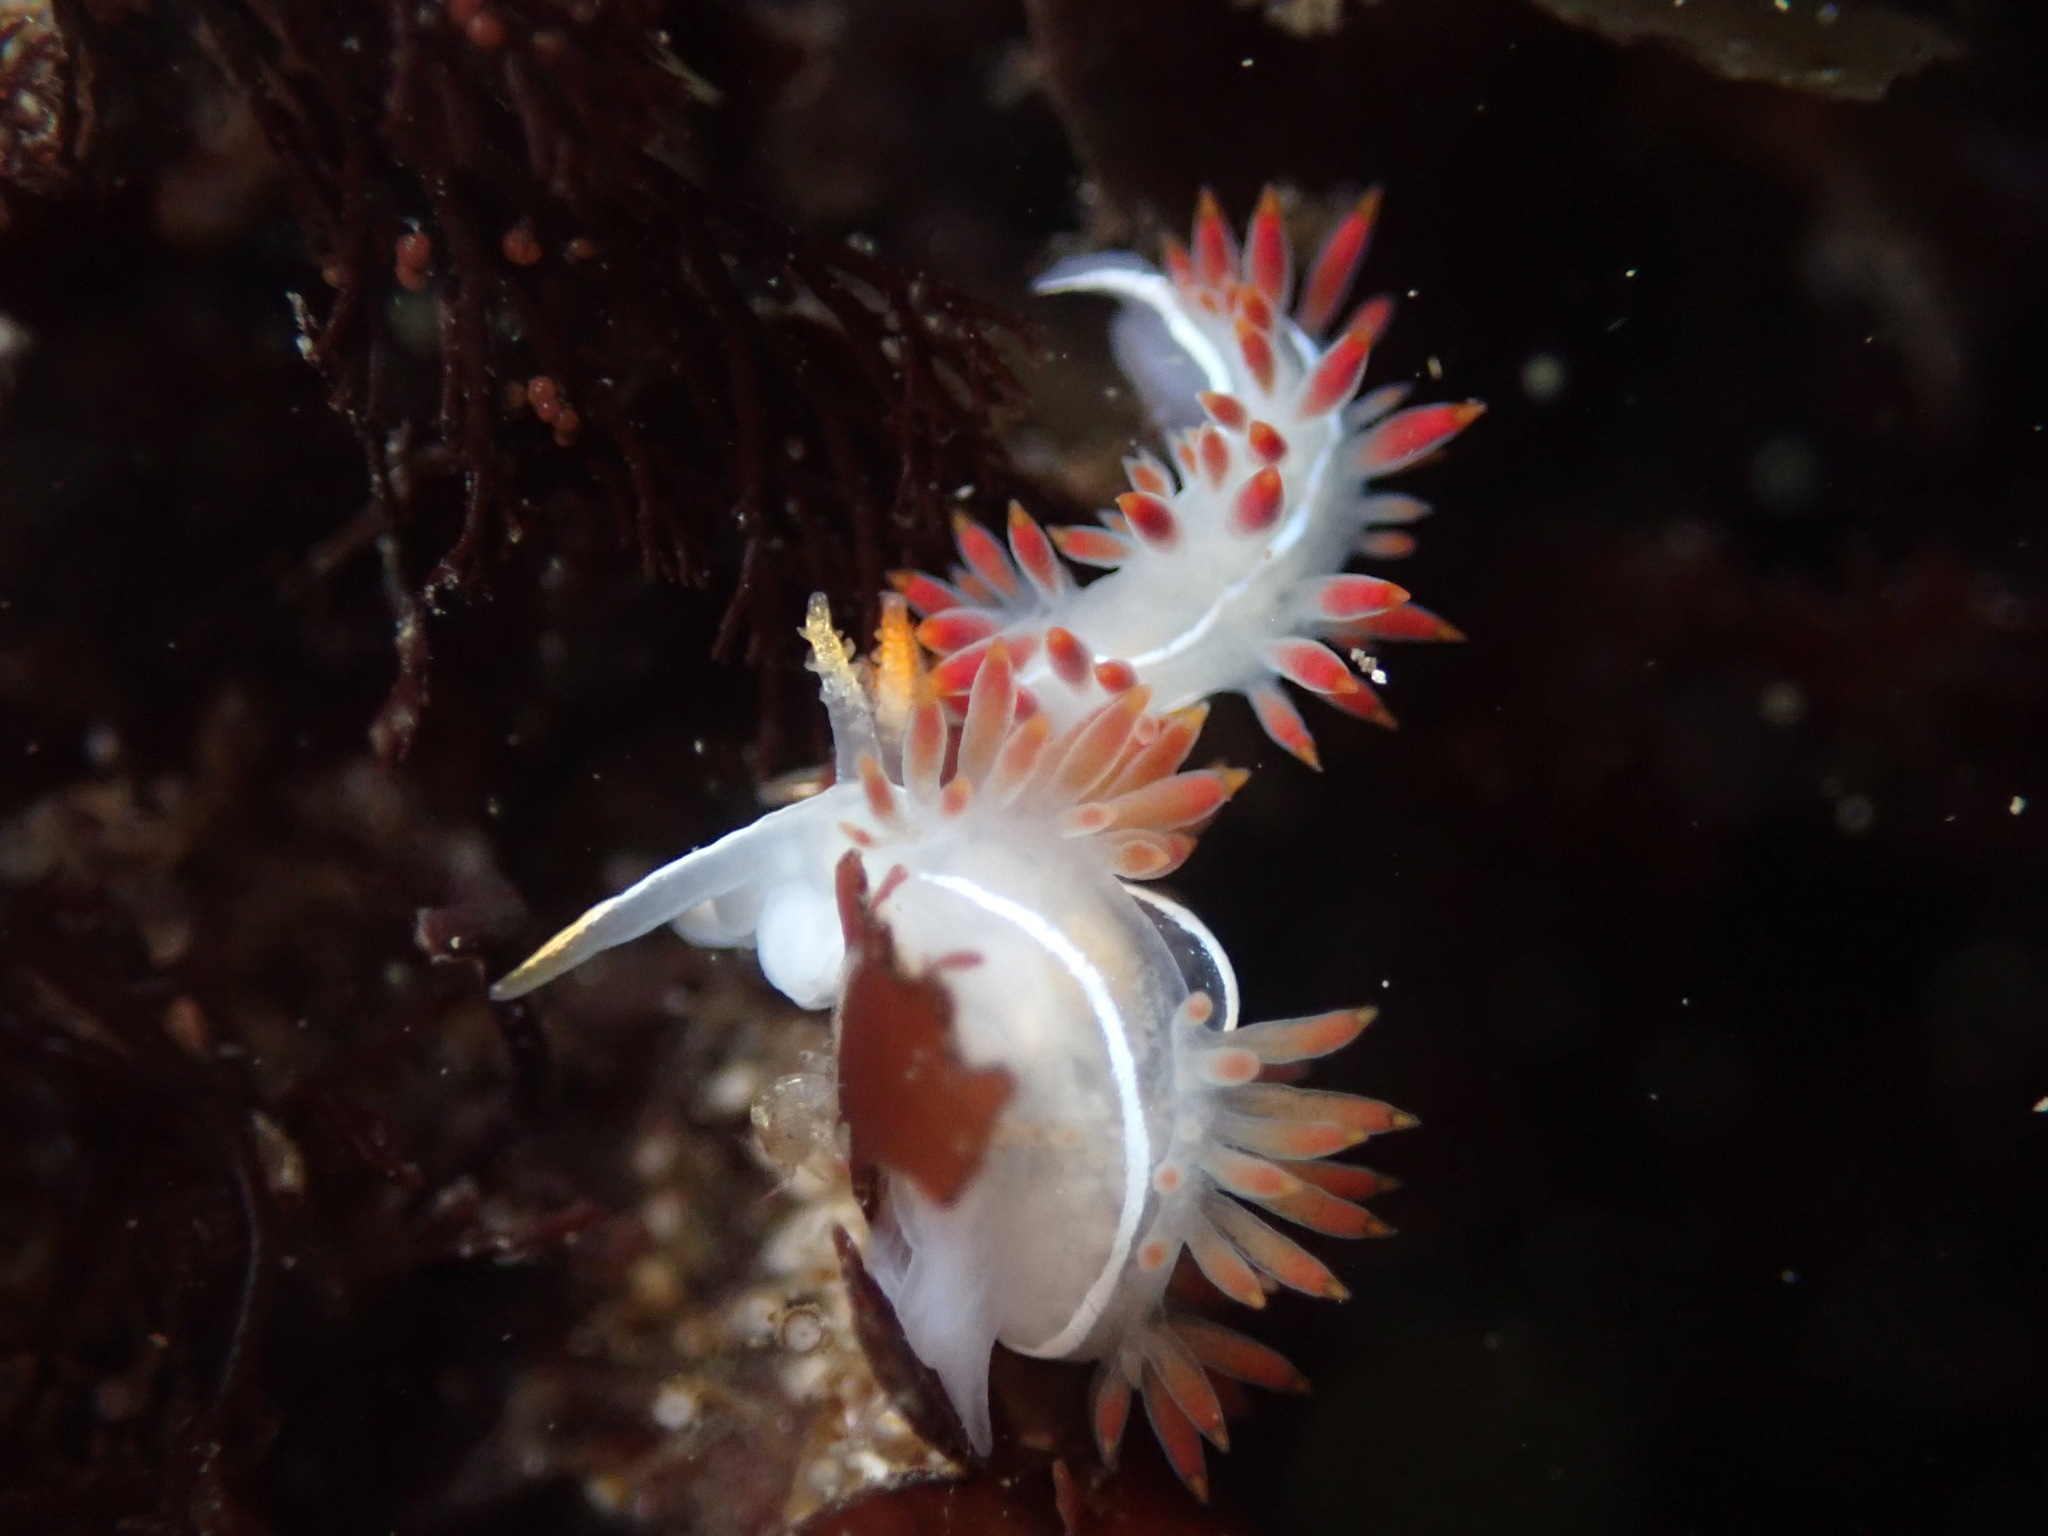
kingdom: Animalia
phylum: Mollusca
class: Gastropoda
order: Nudibranchia
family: Coryphellidae
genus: Coryphella
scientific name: Coryphella trilineata
